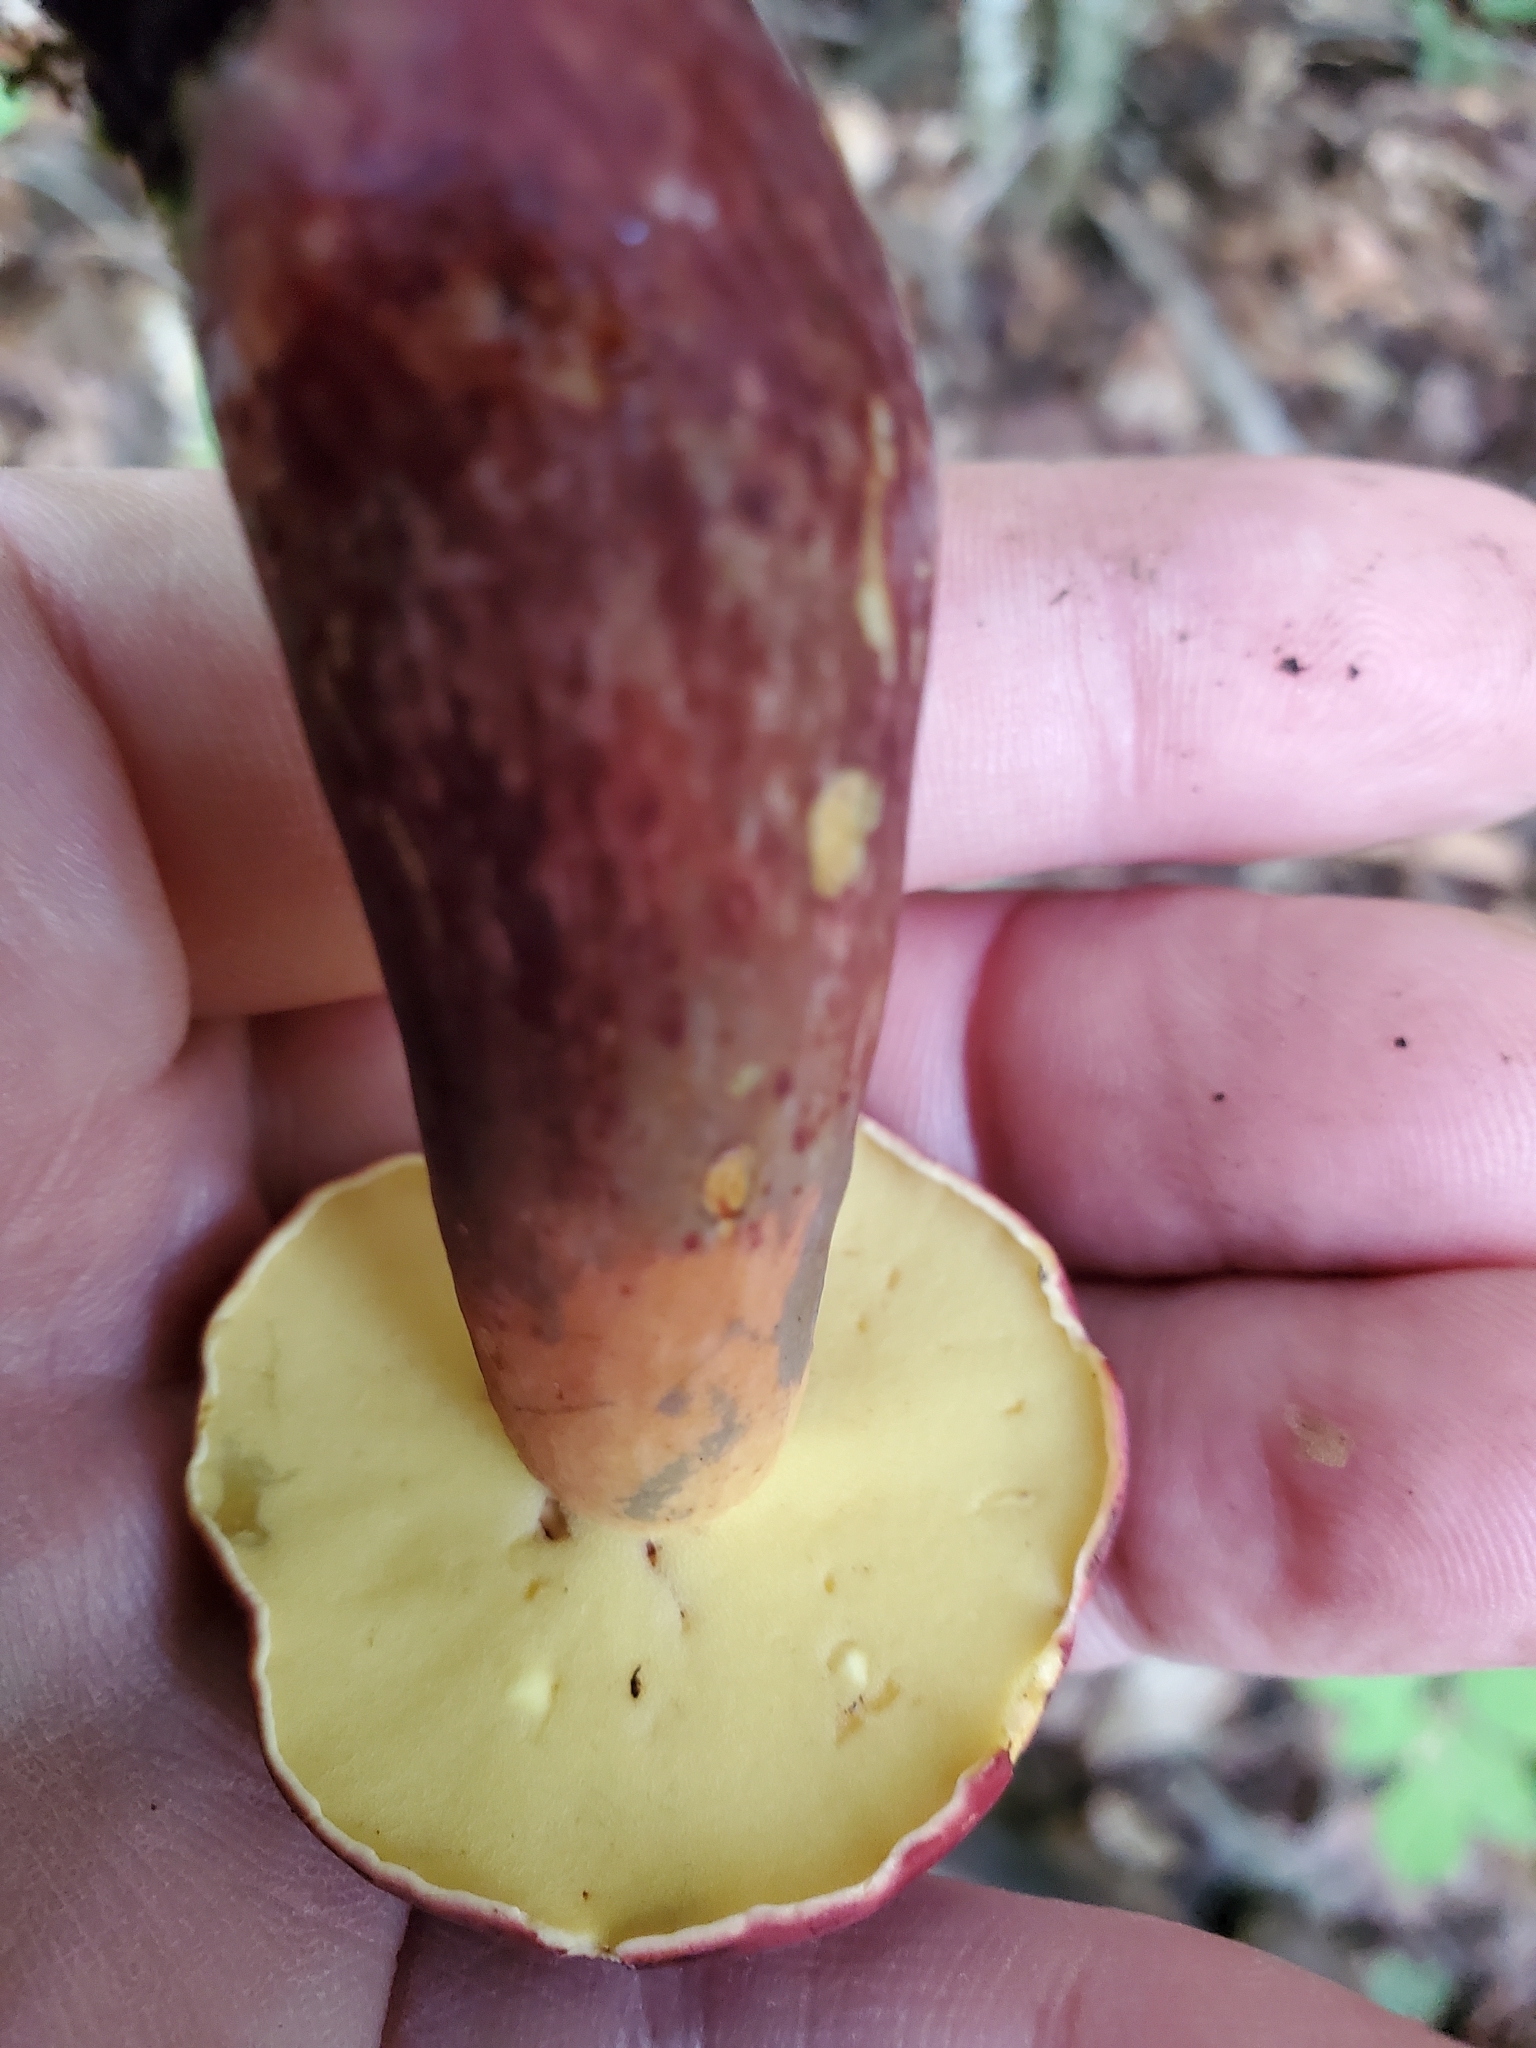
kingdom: Fungi
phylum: Basidiomycota
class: Agaricomycetes
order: Boletales
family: Boletaceae
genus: Baorangia
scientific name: Baorangia bicolor
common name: Two-colored bolete
